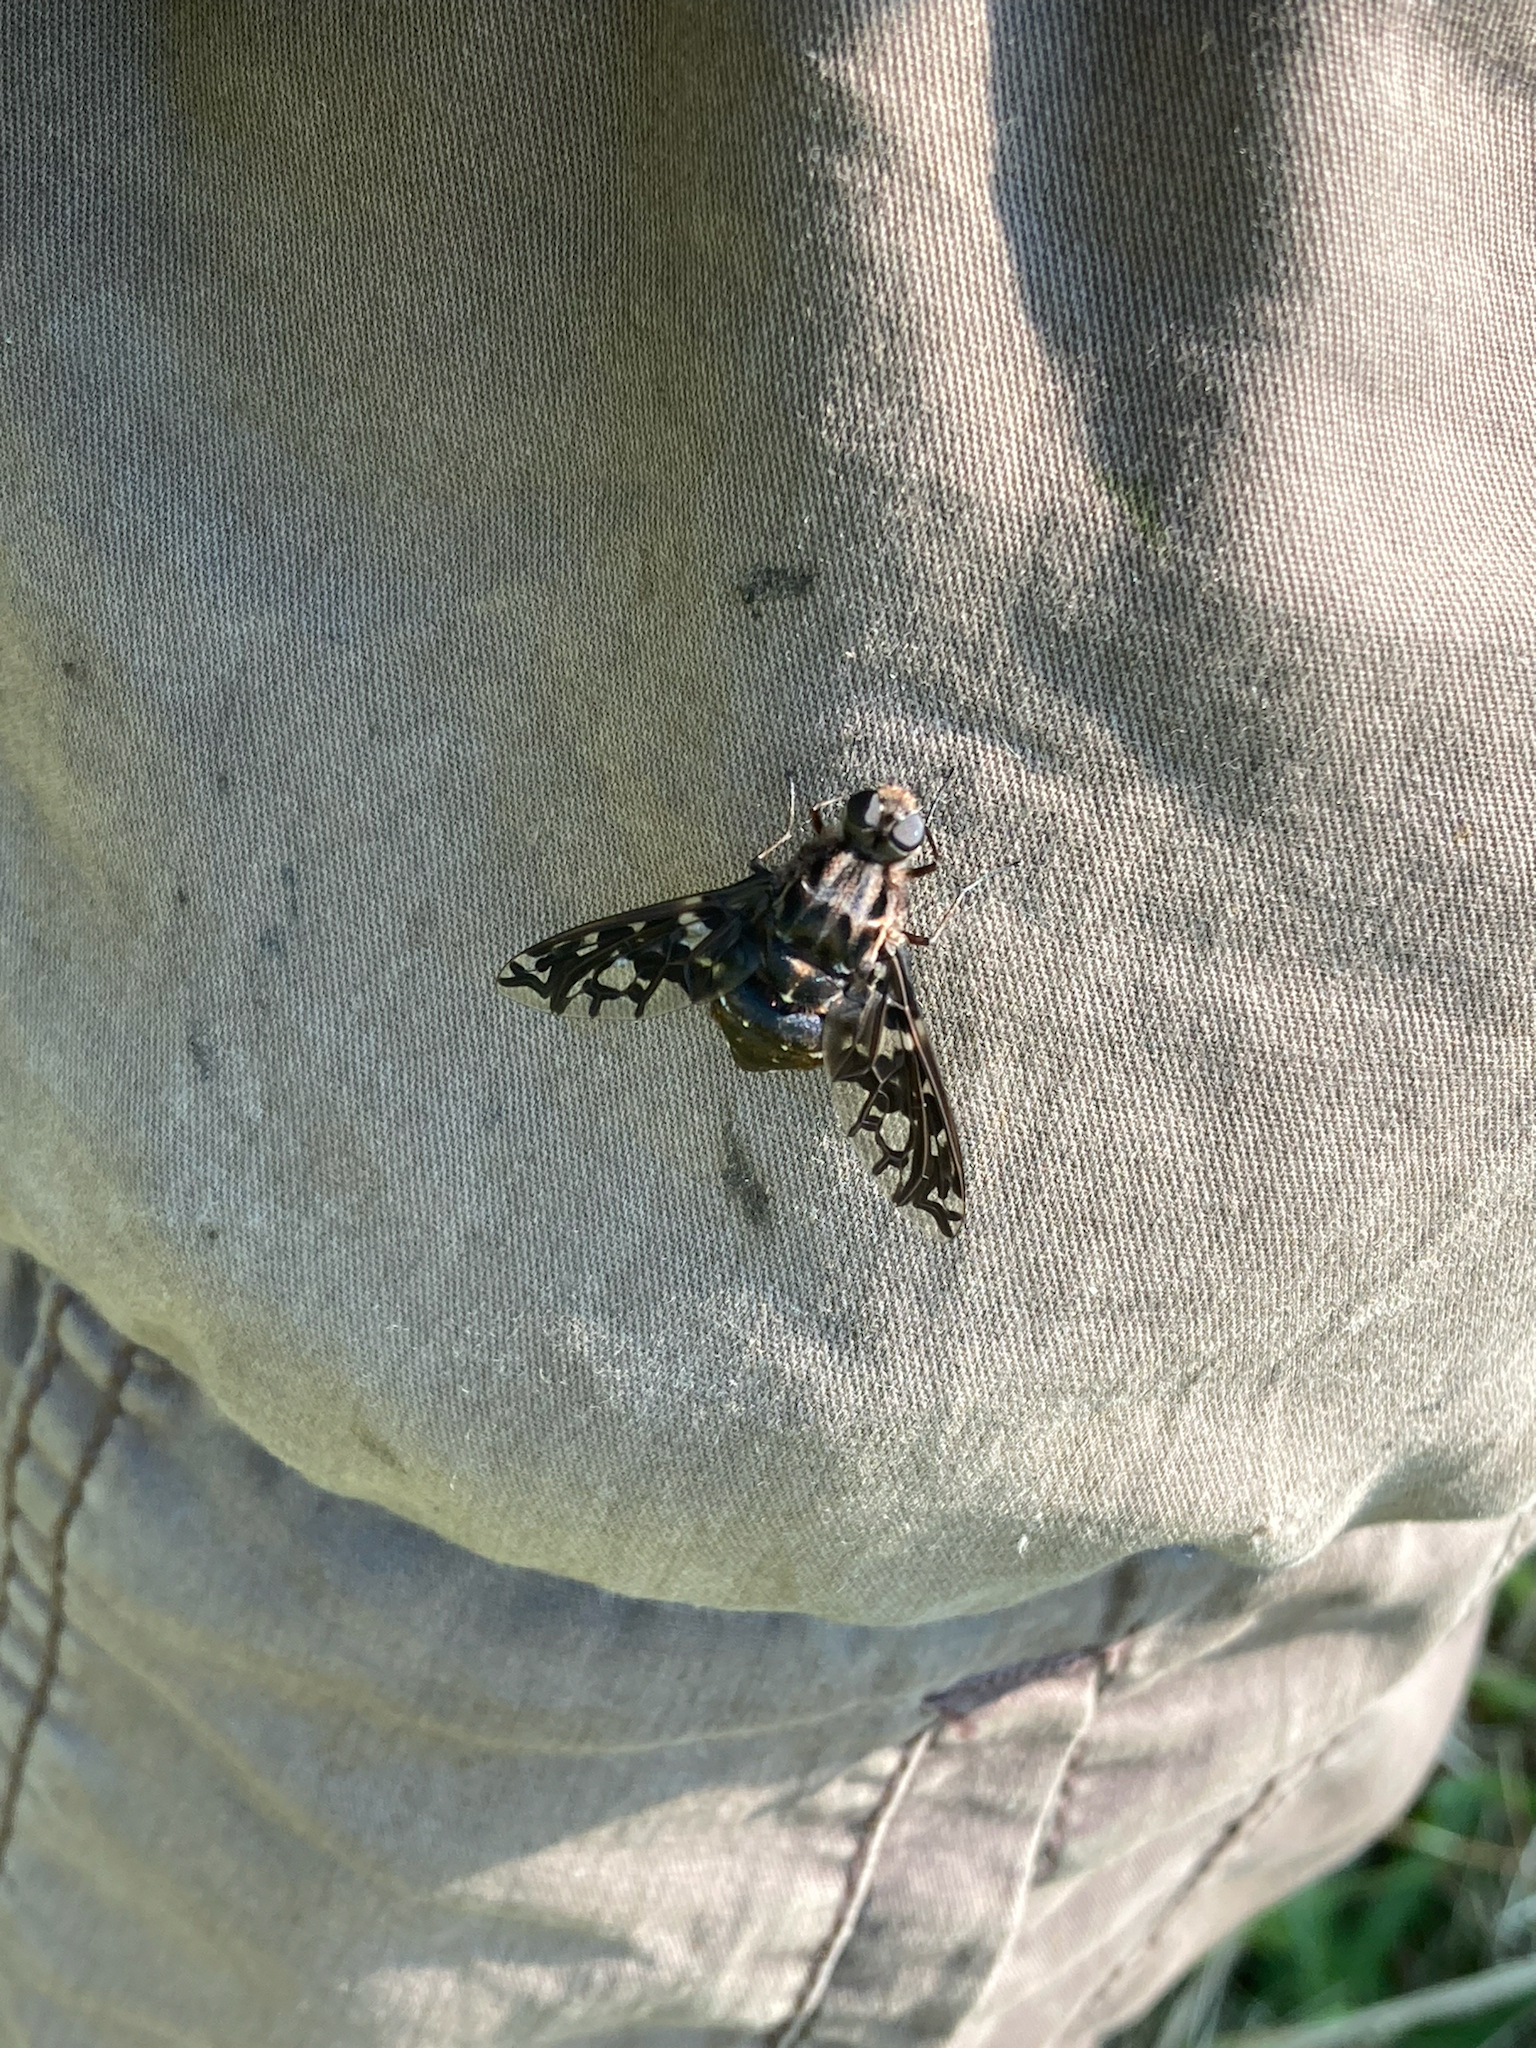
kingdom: Animalia
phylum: Arthropoda
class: Insecta
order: Diptera
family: Bombyliidae
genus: Xenox
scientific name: Xenox tigrinus
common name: Tiger bee fly
